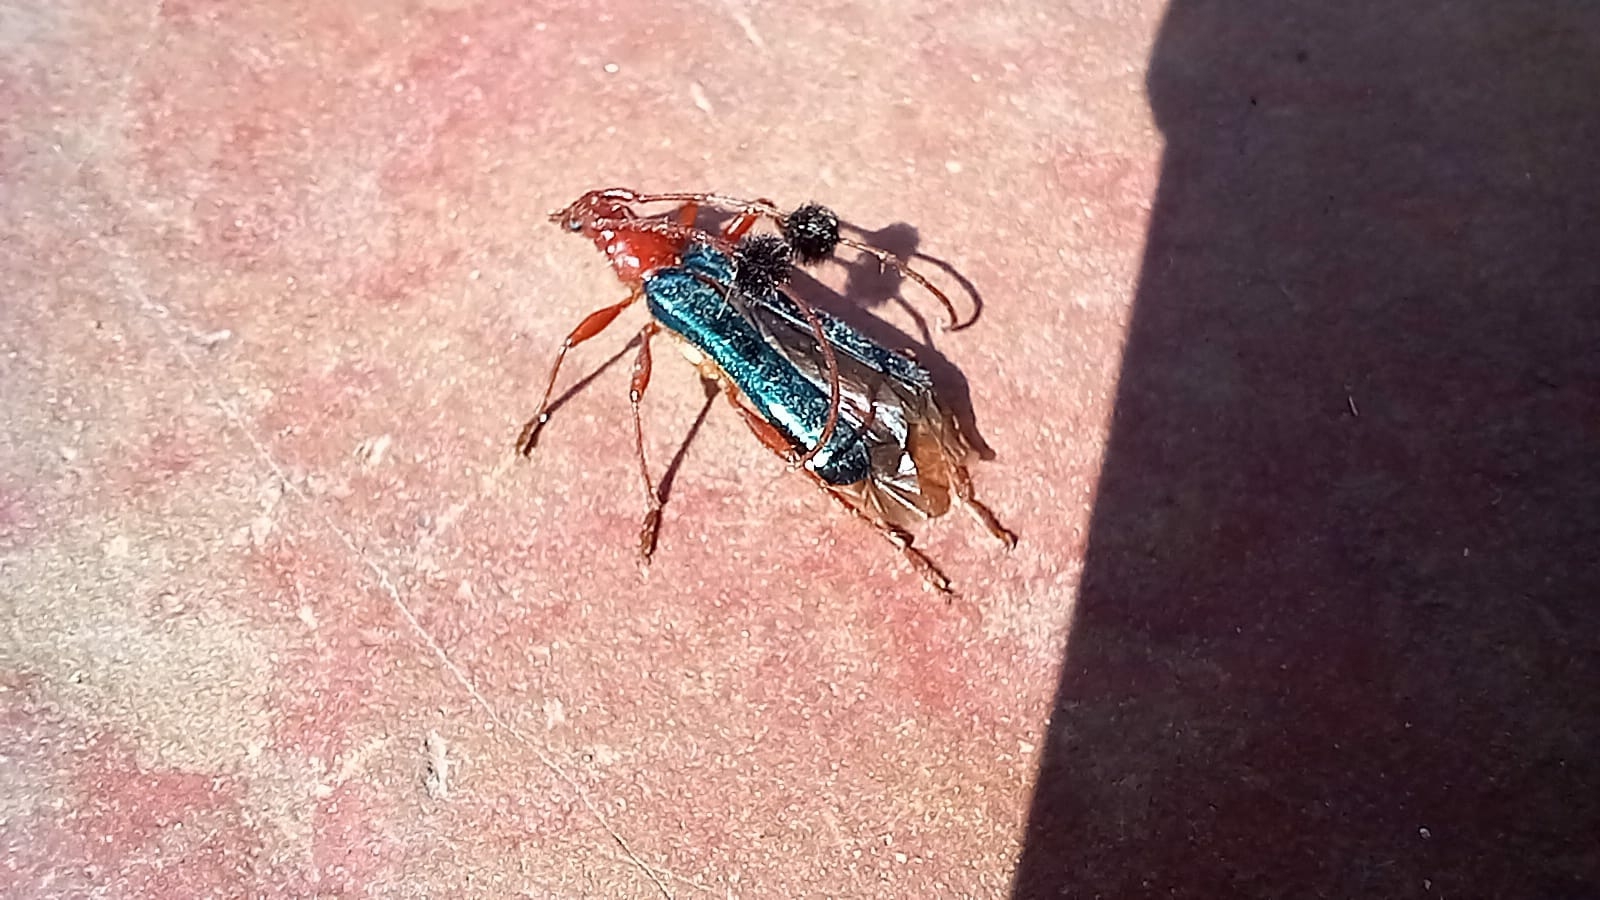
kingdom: Animalia
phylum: Arthropoda
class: Insecta
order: Coleoptera
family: Cerambycidae
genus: Paromoeocerus
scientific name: Paromoeocerus barbicornis
